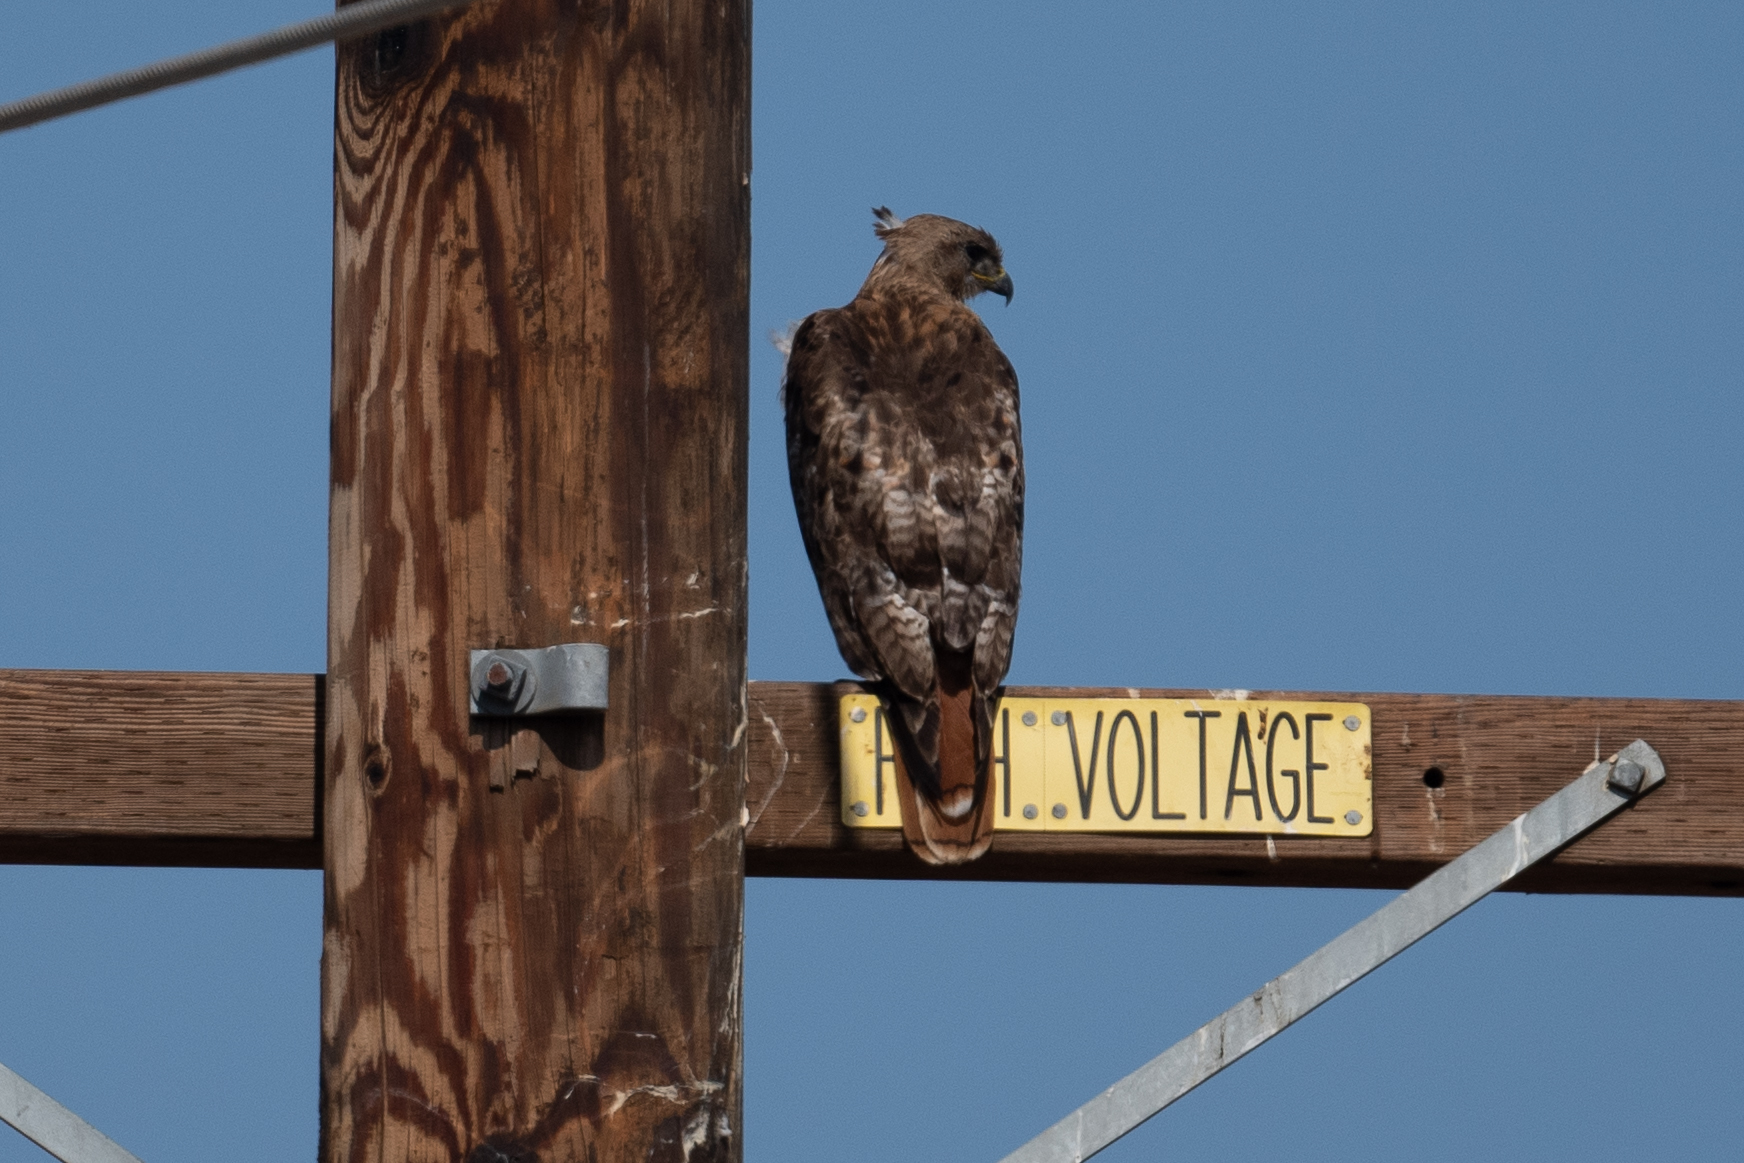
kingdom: Animalia
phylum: Chordata
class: Aves
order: Accipitriformes
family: Accipitridae
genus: Buteo
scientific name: Buteo jamaicensis
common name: Red-tailed hawk
